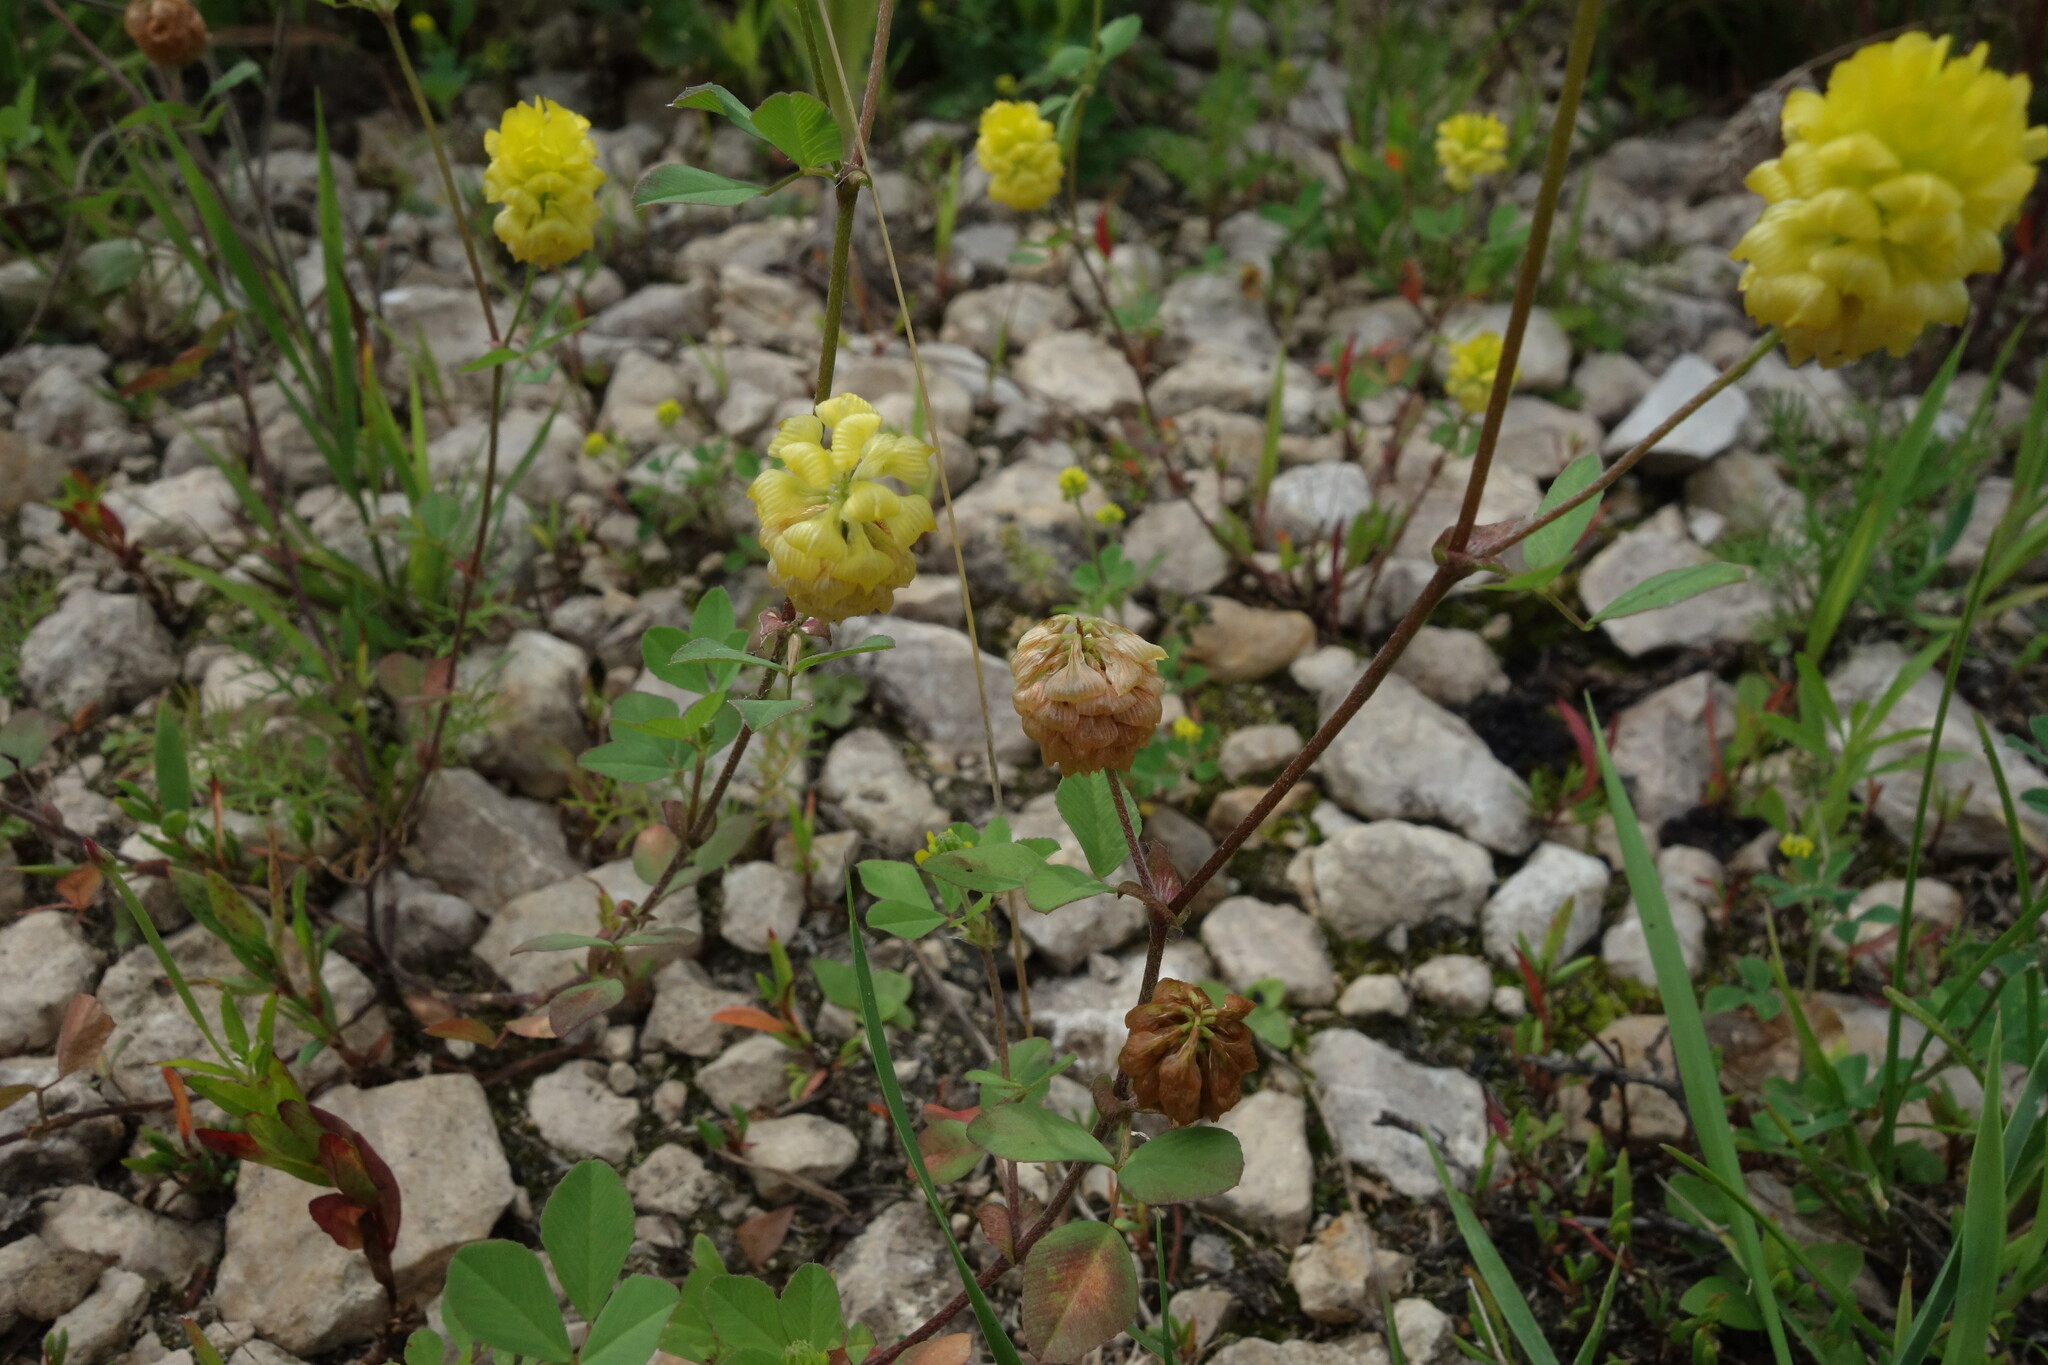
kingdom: Plantae
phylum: Tracheophyta
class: Magnoliopsida
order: Fabales
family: Fabaceae
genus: Trifolium
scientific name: Trifolium campestre
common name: Field clover
